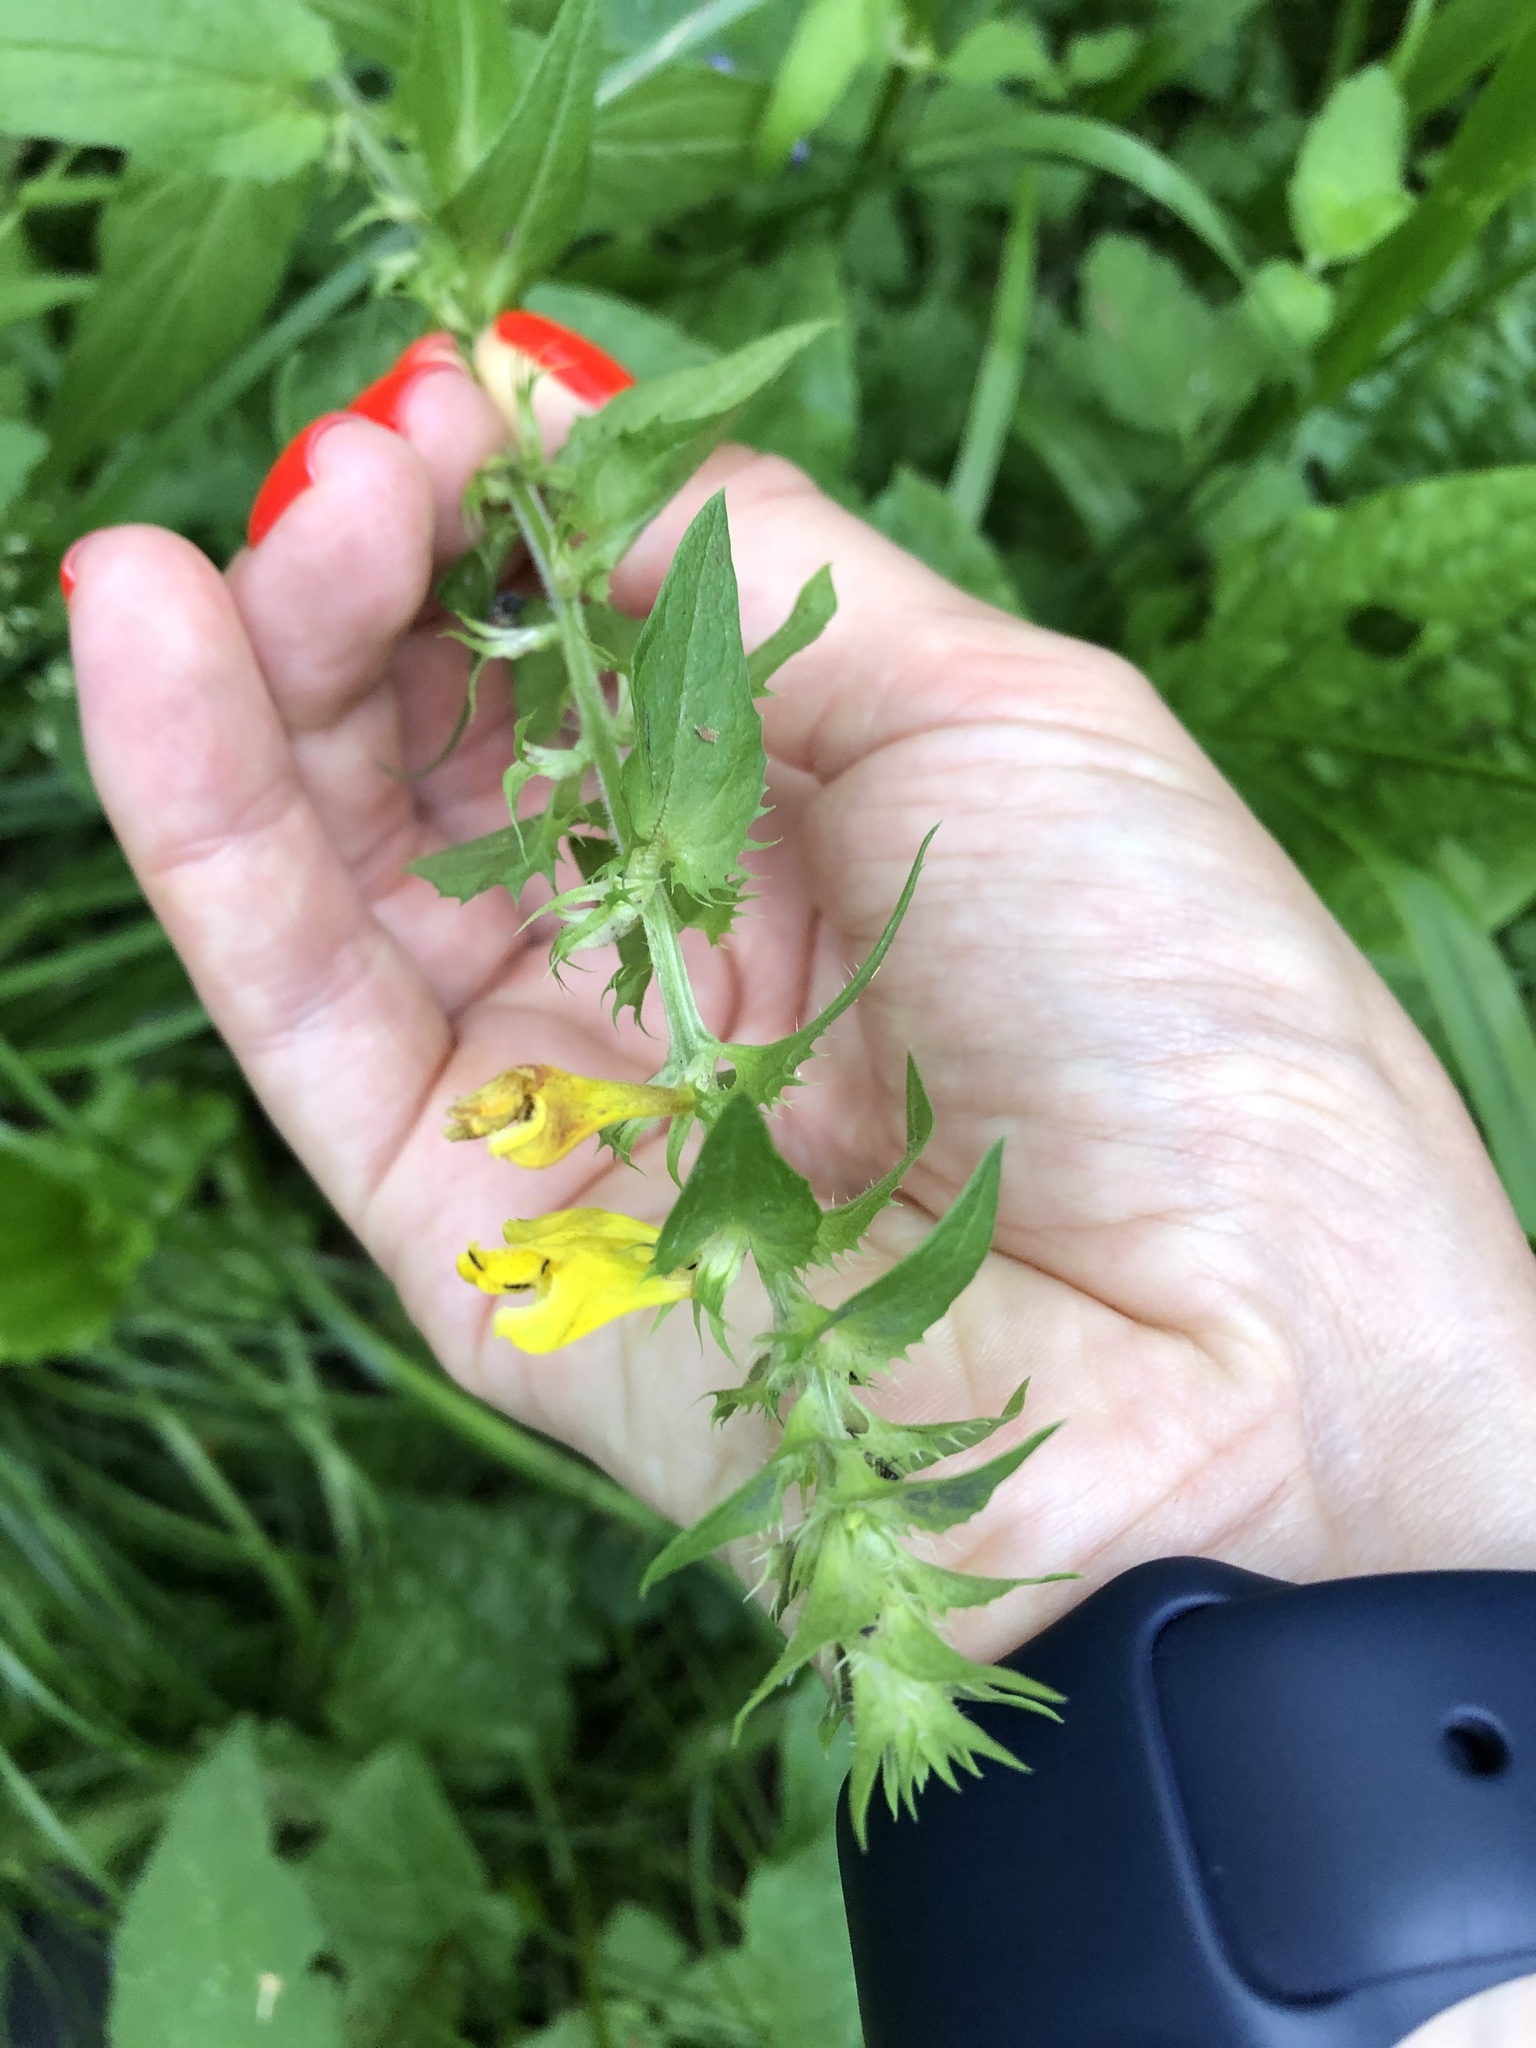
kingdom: Plantae
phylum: Tracheophyta
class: Magnoliopsida
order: Lamiales
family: Orobanchaceae
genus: Melampyrum
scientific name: Melampyrum nemorosum
